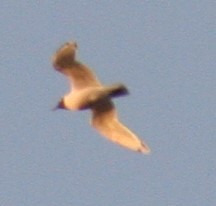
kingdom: Animalia
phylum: Chordata
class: Aves
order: Charadriiformes
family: Laridae
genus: Leucophaeus
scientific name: Leucophaeus pipixcan
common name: Franklin's gull
